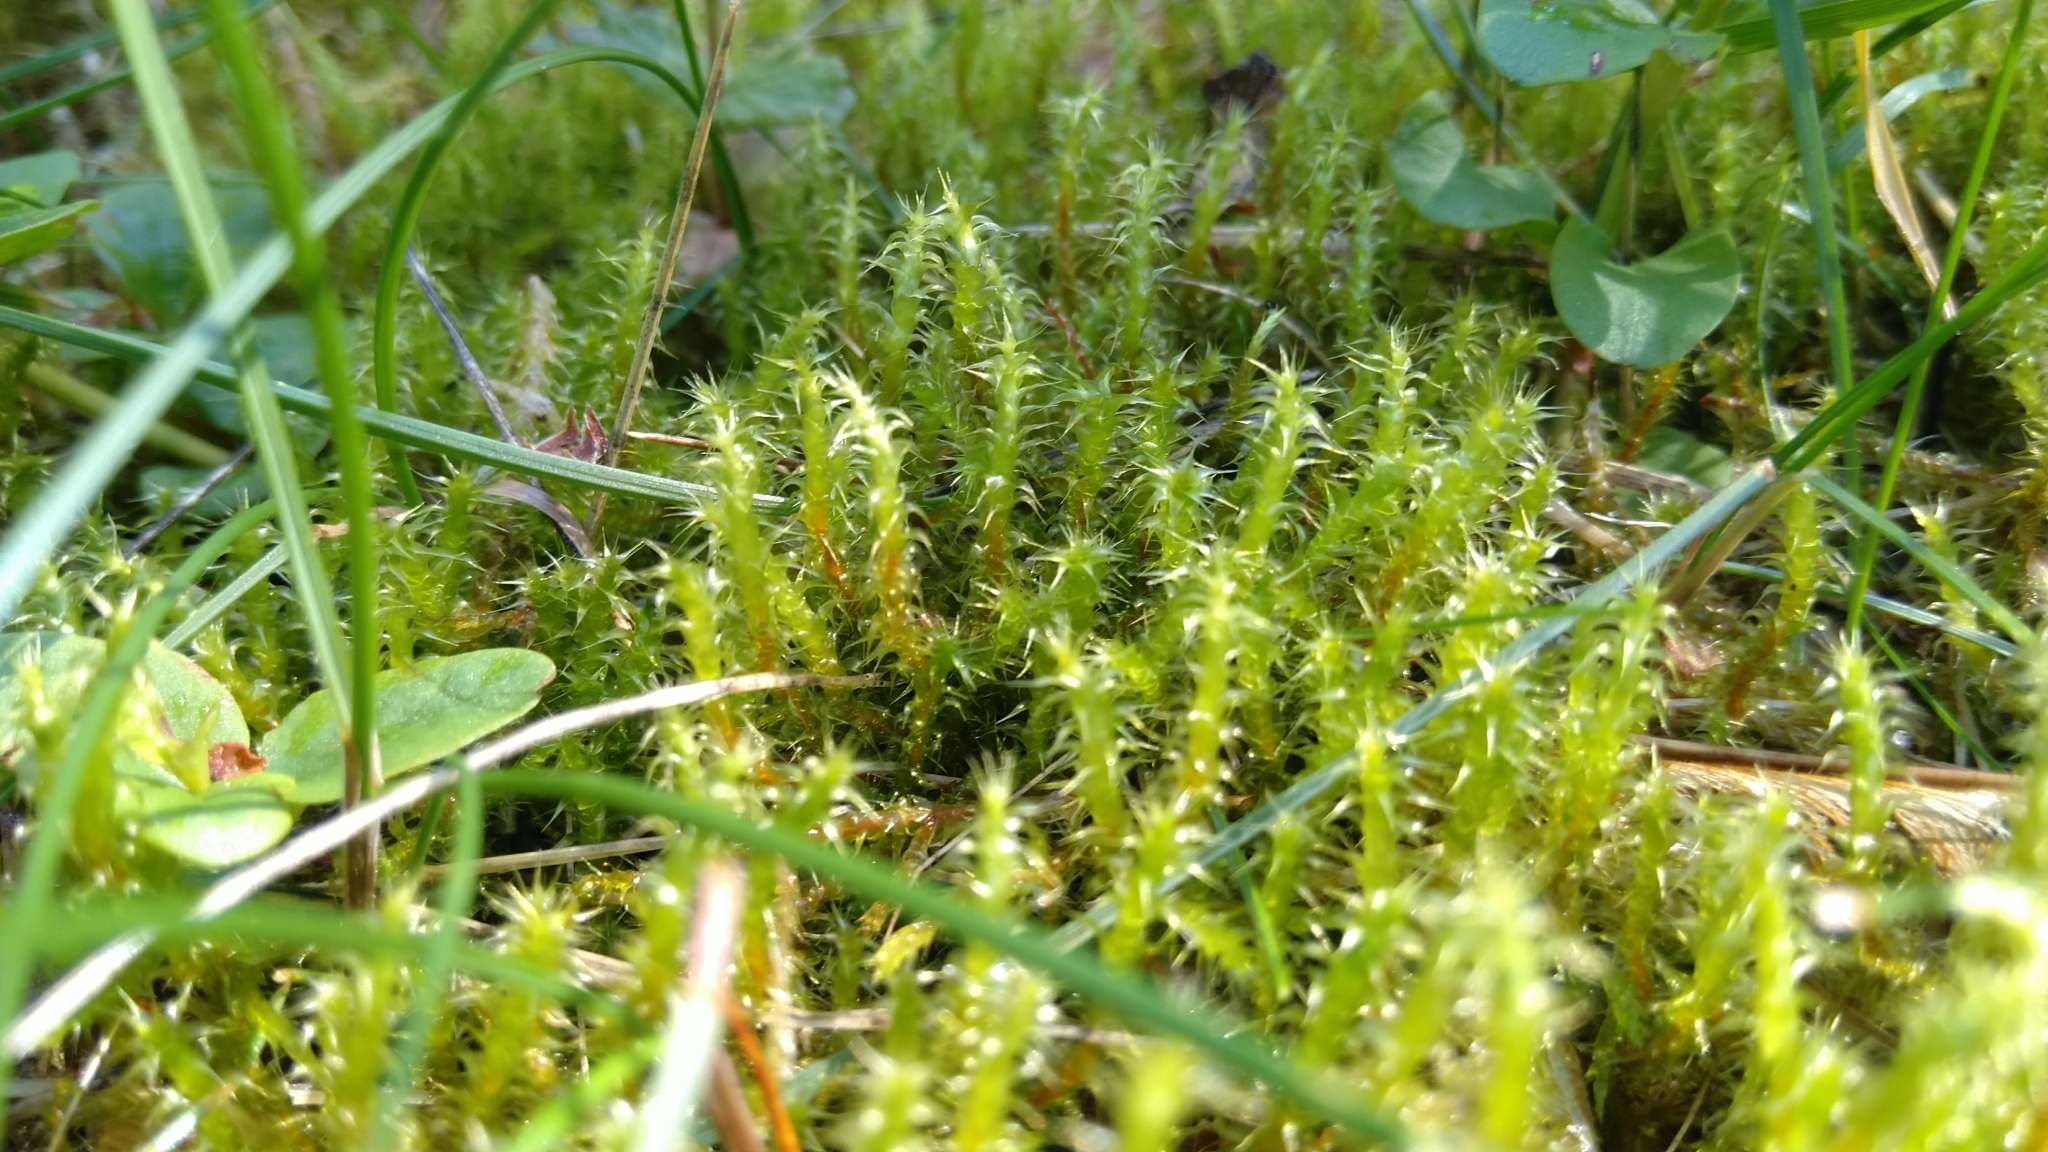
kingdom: Plantae
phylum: Bryophyta
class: Bryopsida
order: Hypnales
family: Hylocomiaceae
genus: Rhytidiadelphus
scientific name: Rhytidiadelphus squarrosus
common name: Springy turf-moss
